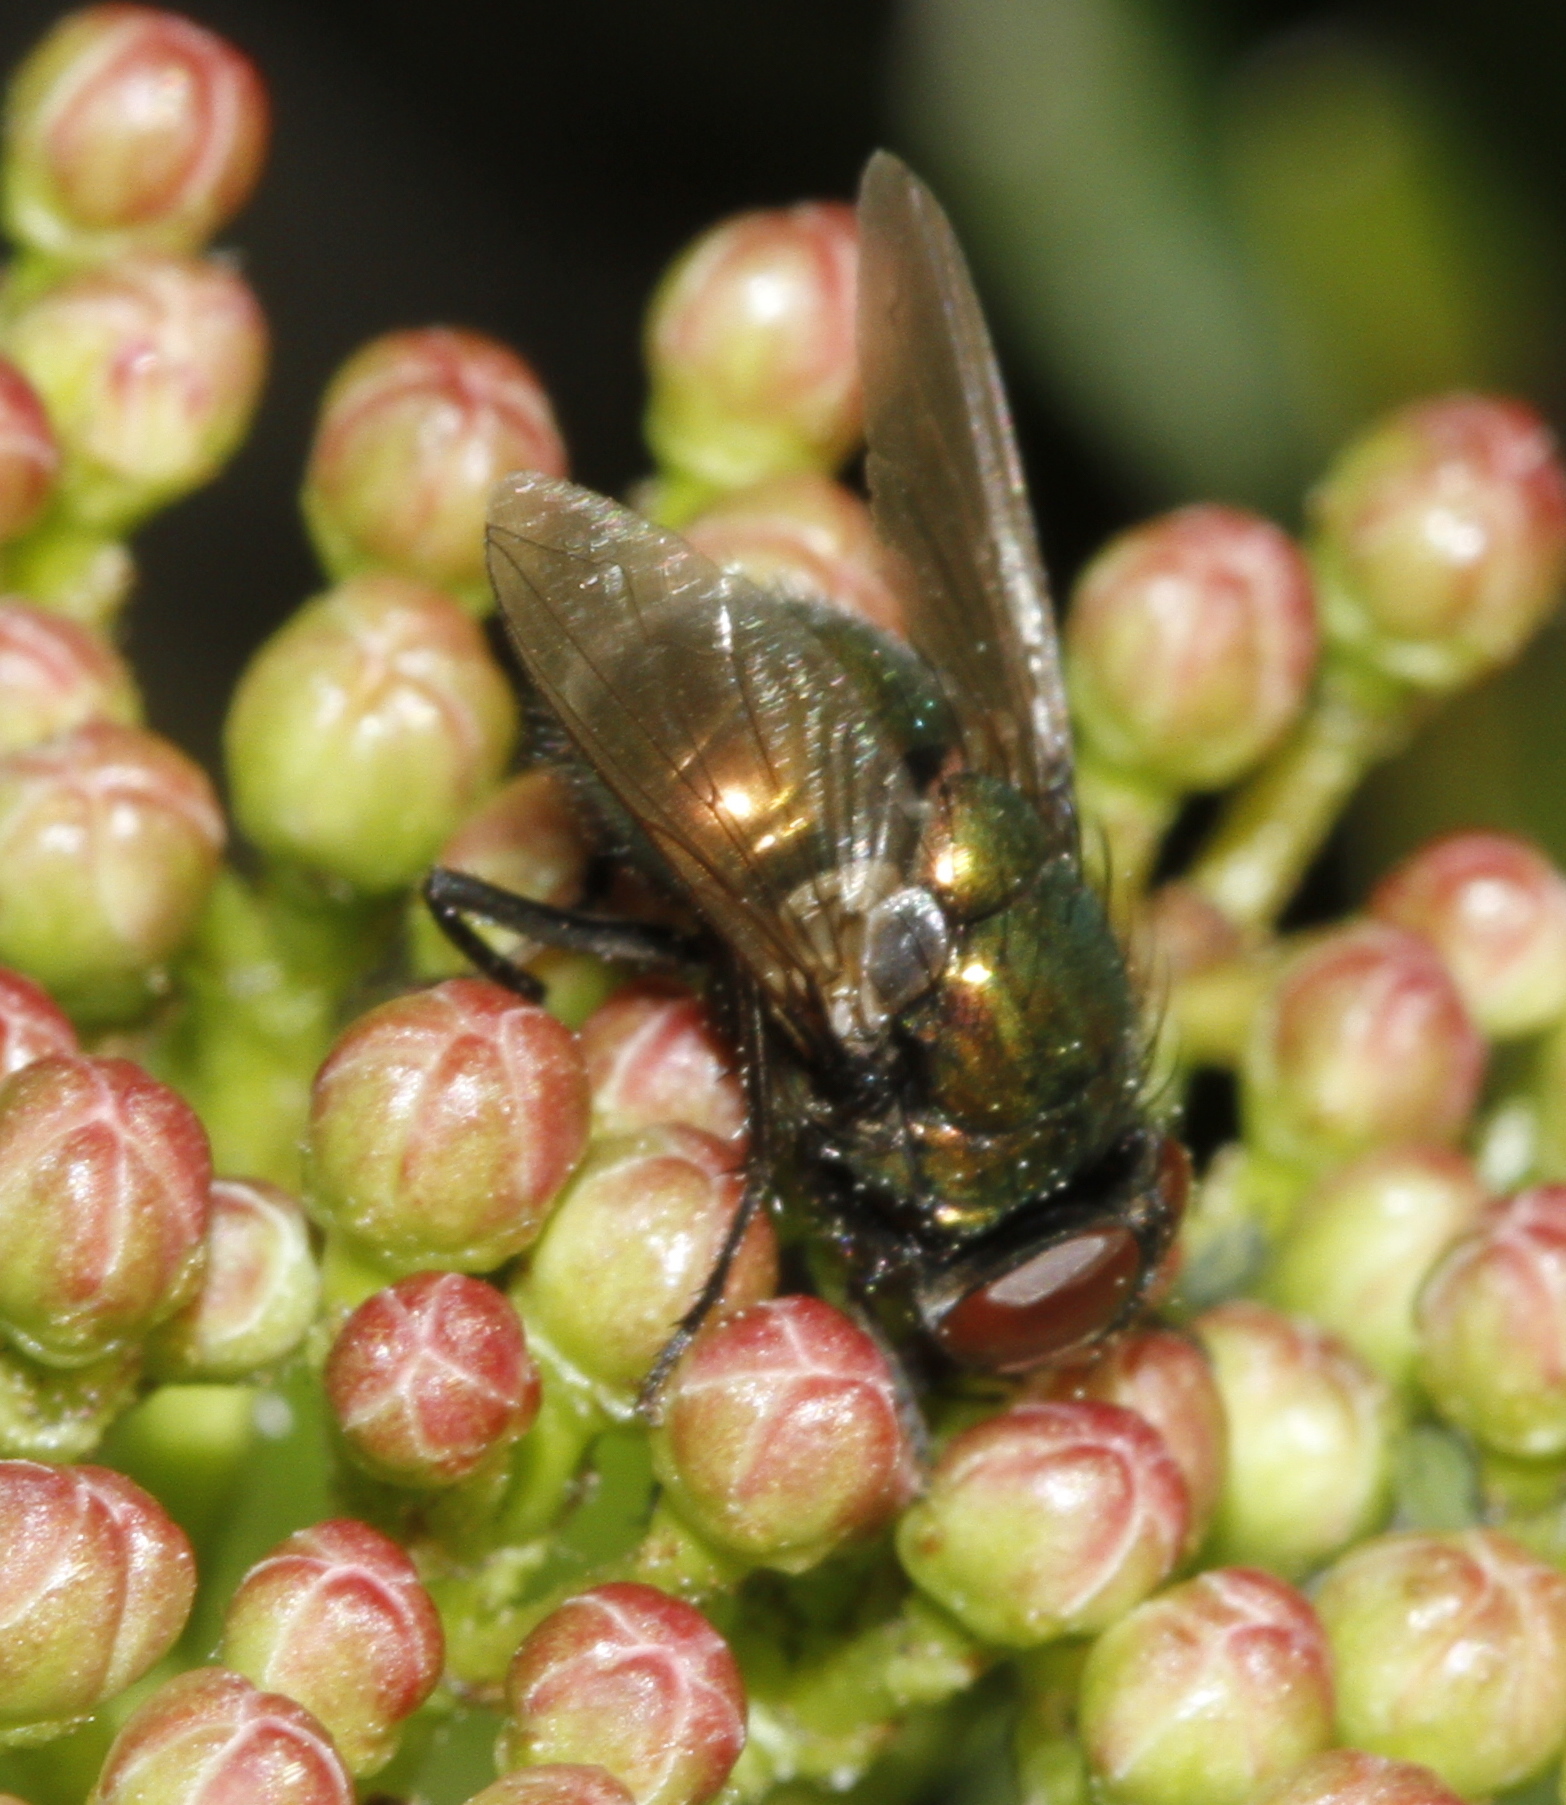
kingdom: Animalia
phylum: Arthropoda
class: Insecta
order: Diptera
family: Calliphoridae
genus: Lucilia
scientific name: Lucilia
